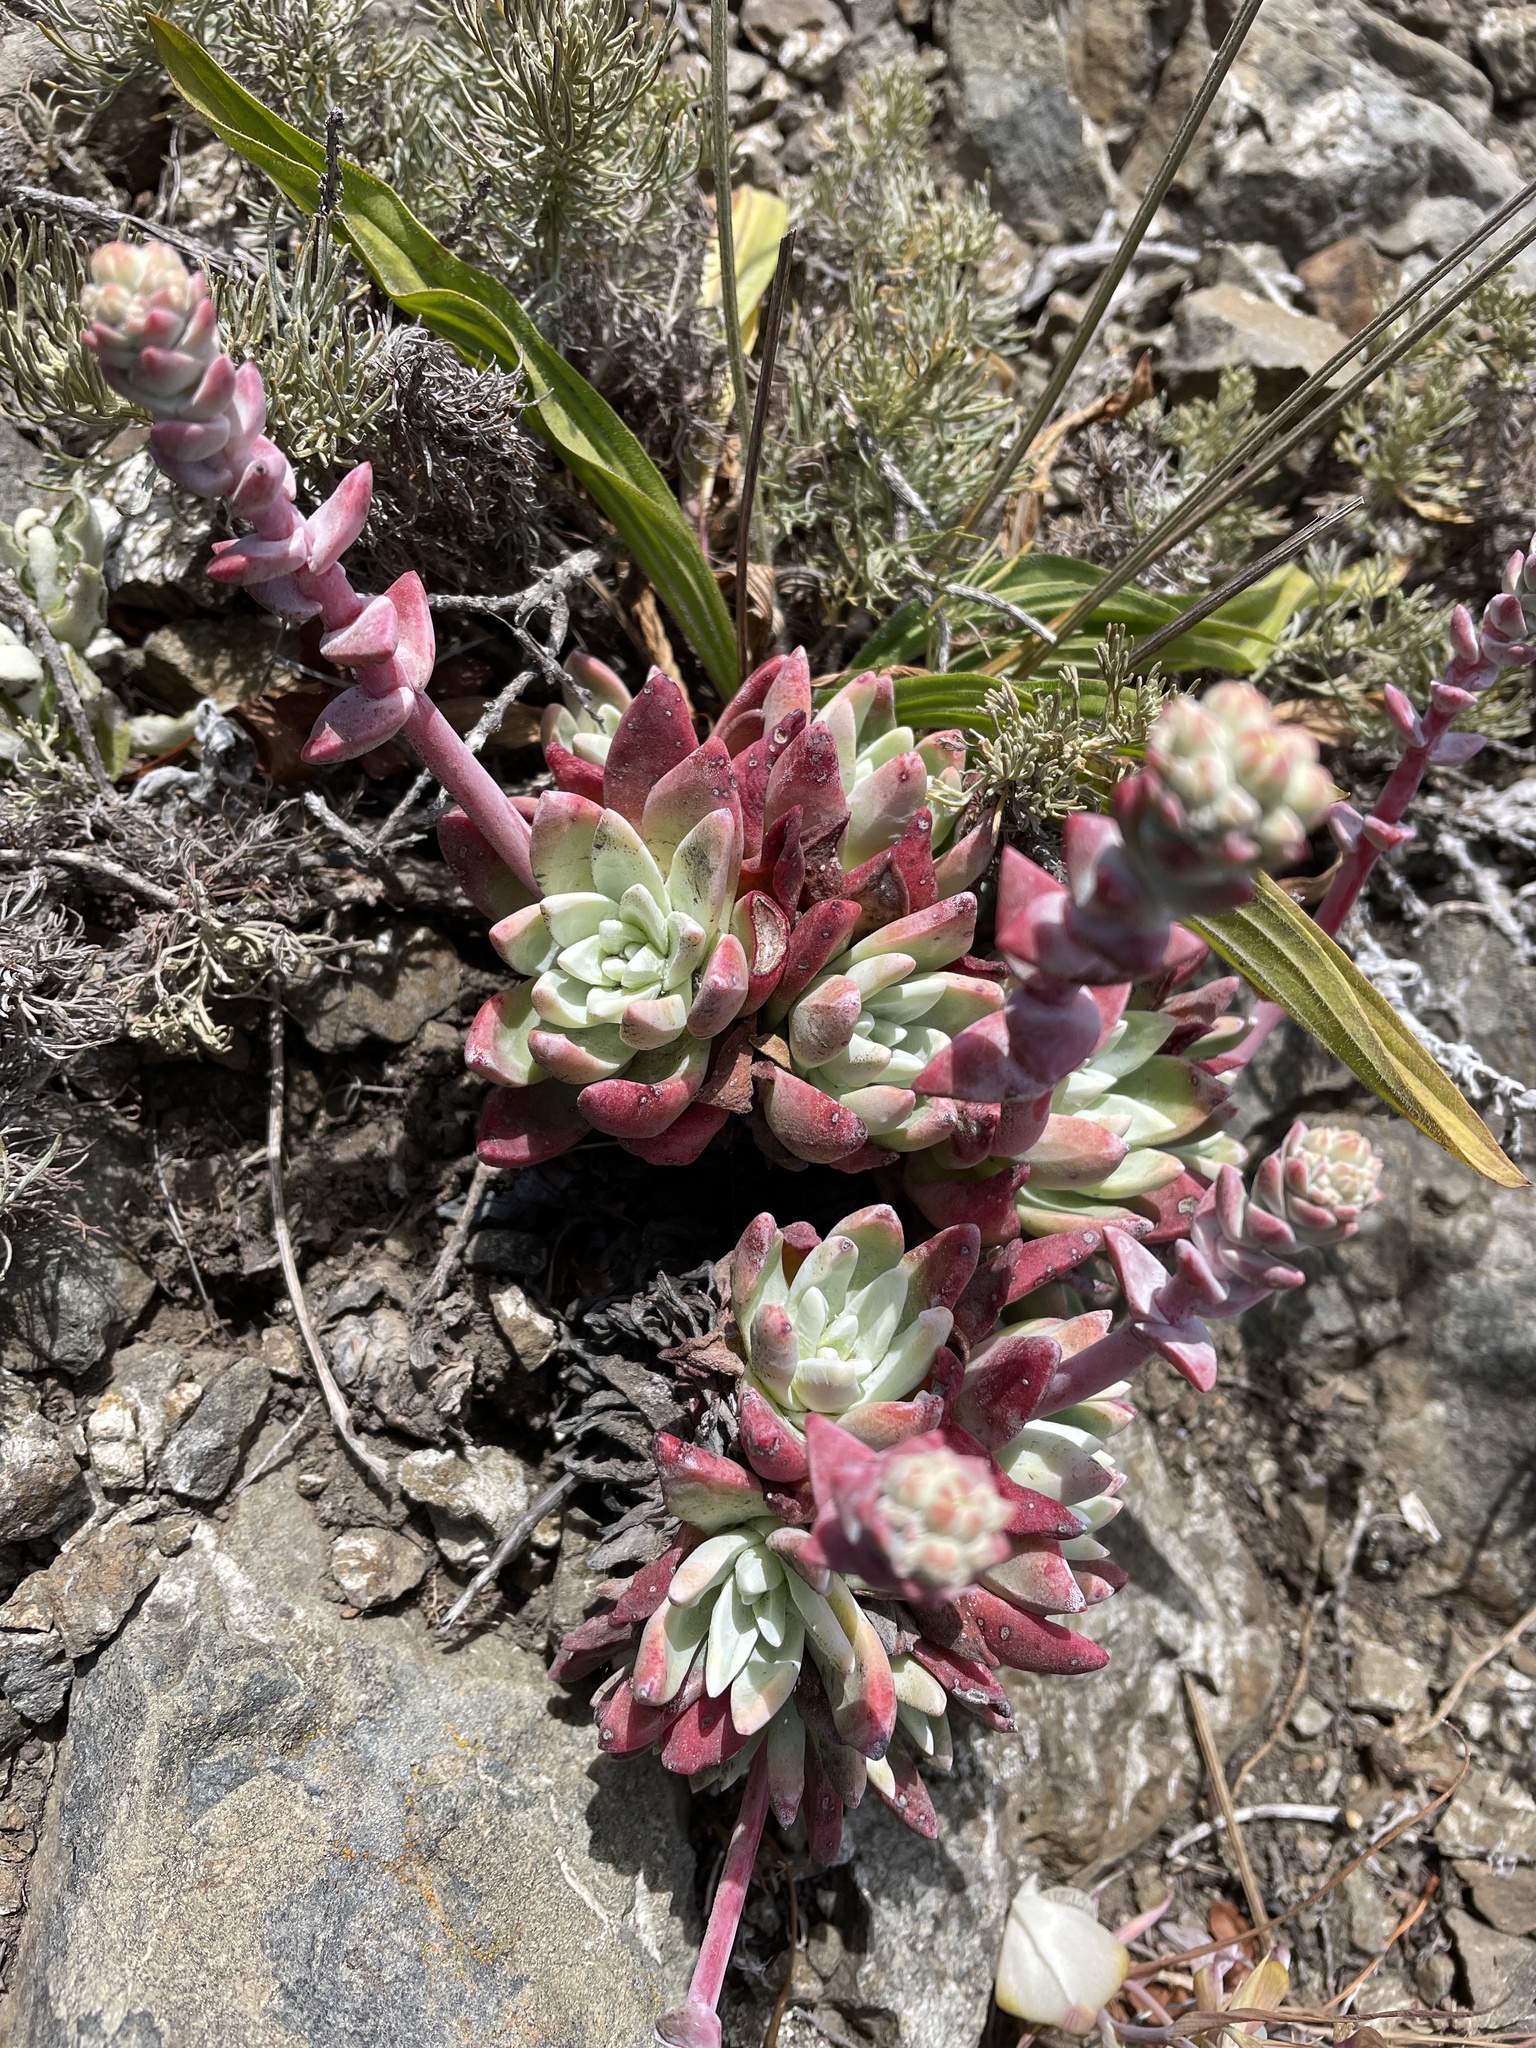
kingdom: Plantae
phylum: Tracheophyta
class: Magnoliopsida
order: Saxifragales
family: Crassulaceae
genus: Dudleya
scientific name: Dudleya caespitosa
